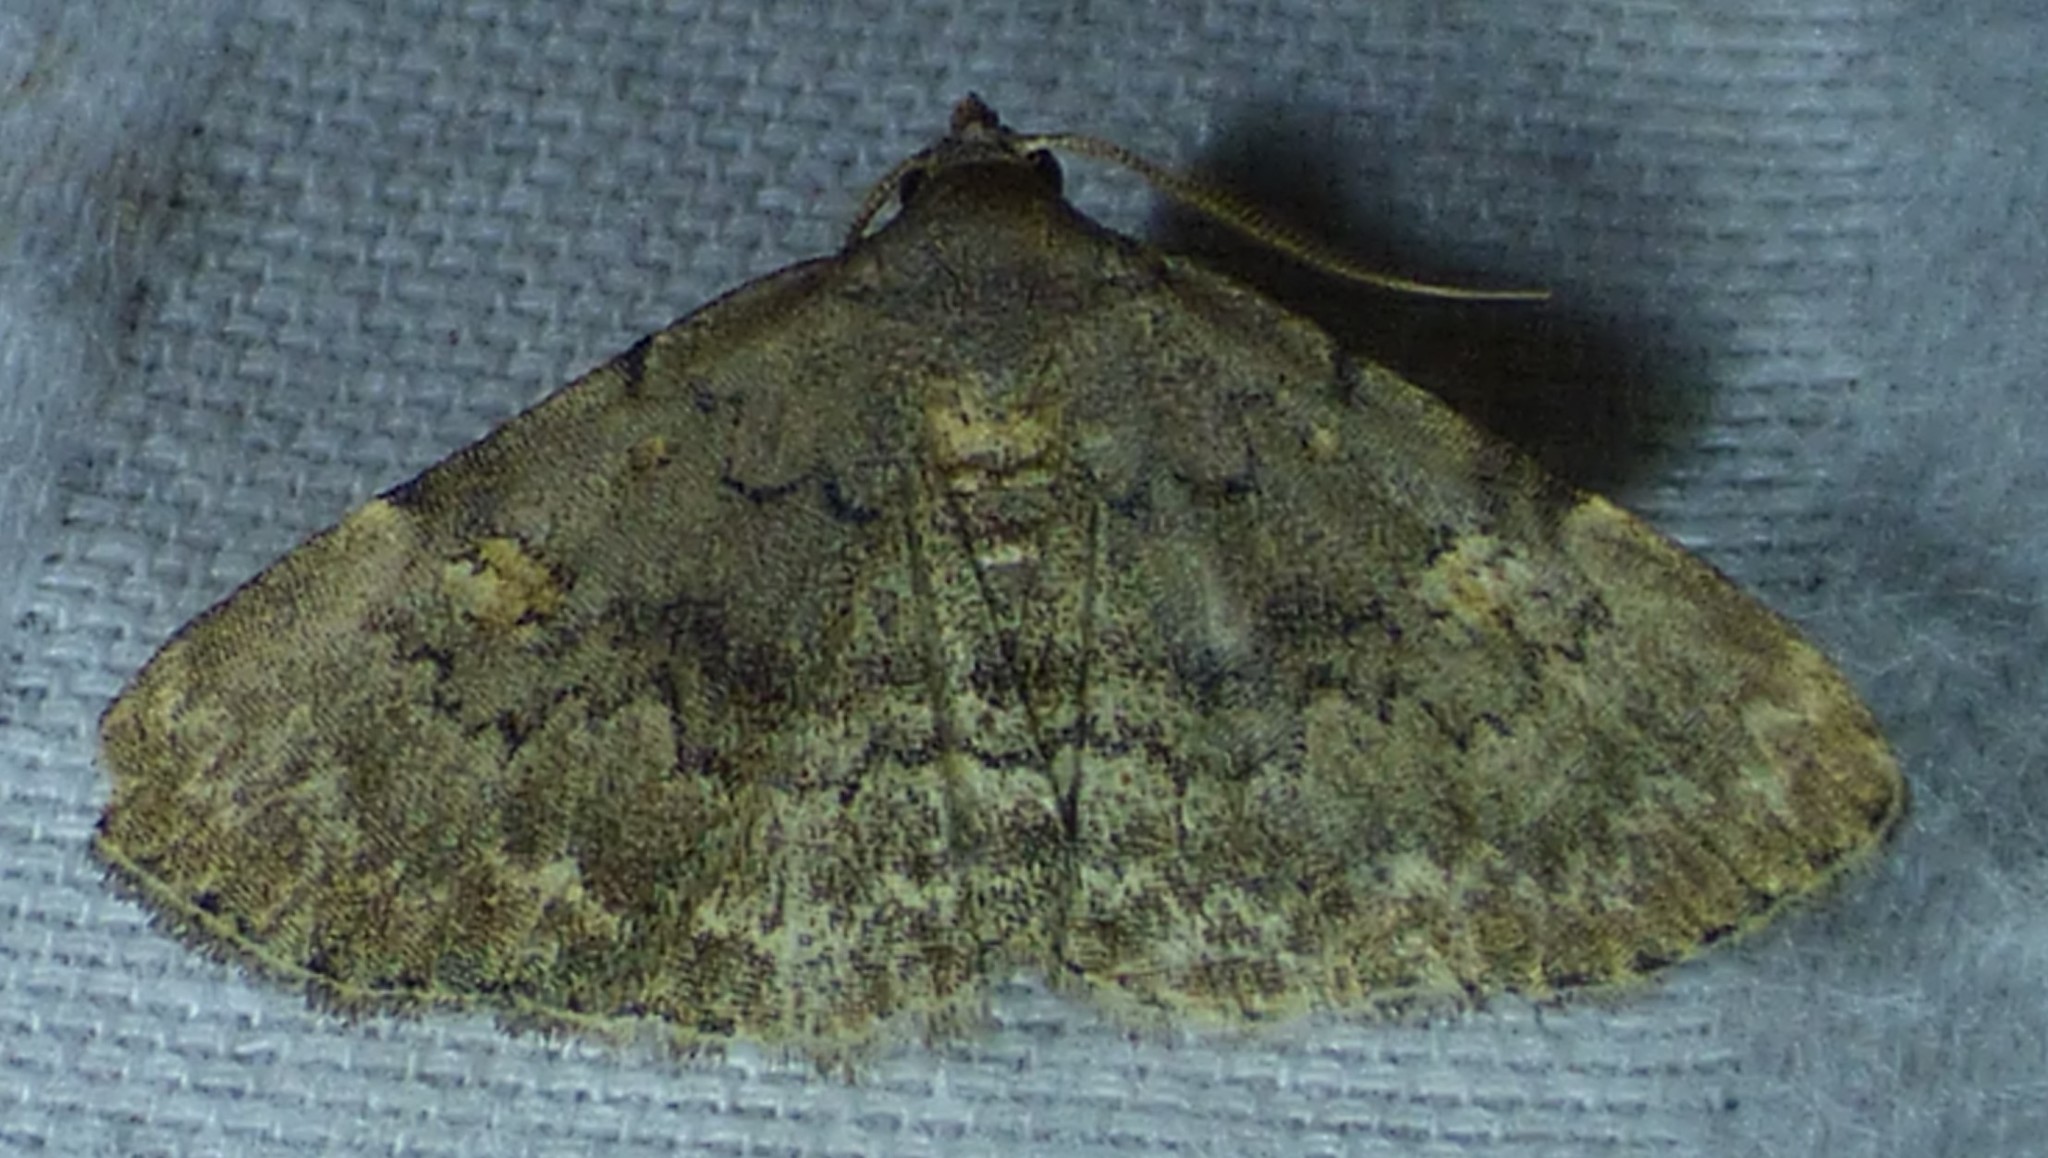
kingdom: Animalia
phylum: Arthropoda
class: Insecta
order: Lepidoptera
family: Erebidae
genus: Idia
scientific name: Idia aemula
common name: Common idia moth
